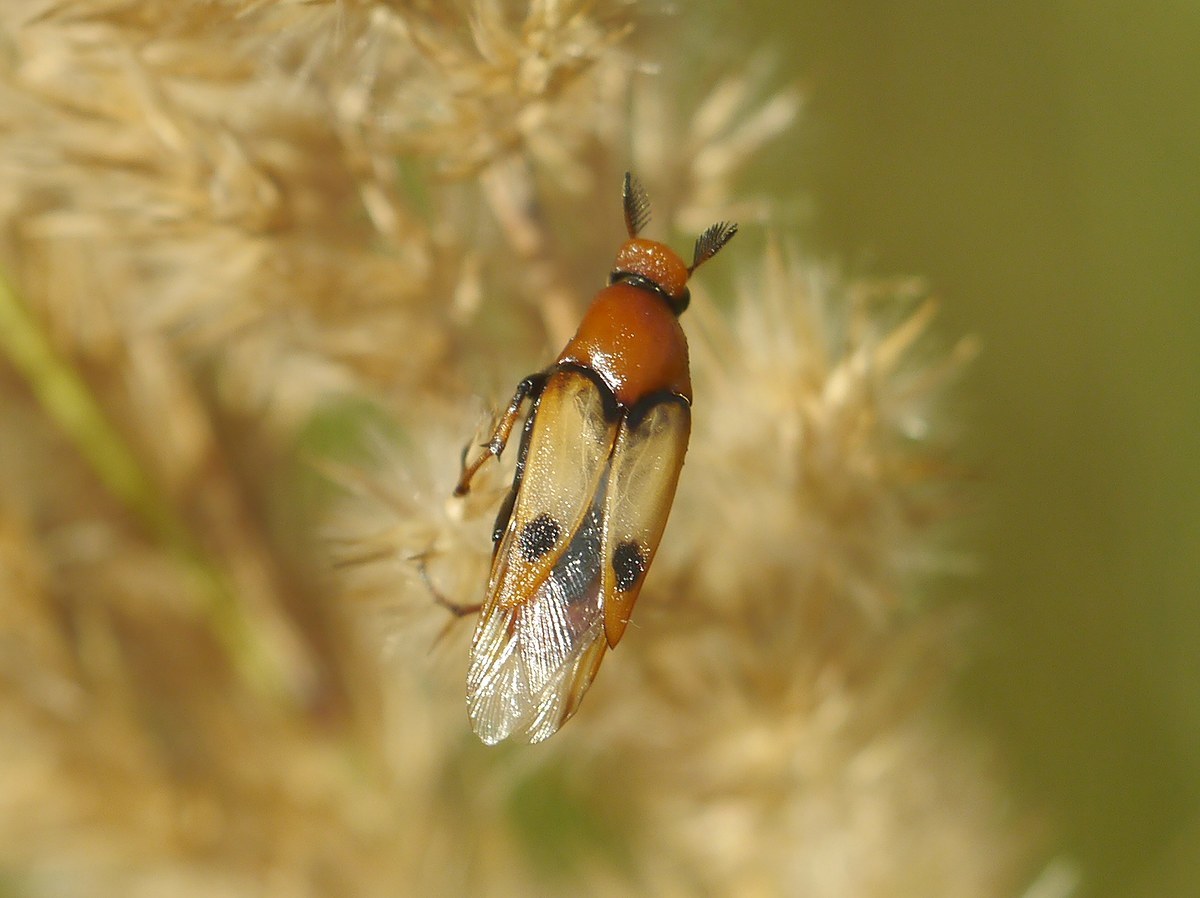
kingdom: Animalia
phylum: Arthropoda
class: Insecta
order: Coleoptera
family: Ripiphoridae
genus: Macrosiagon
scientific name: Macrosiagon bimaculata
